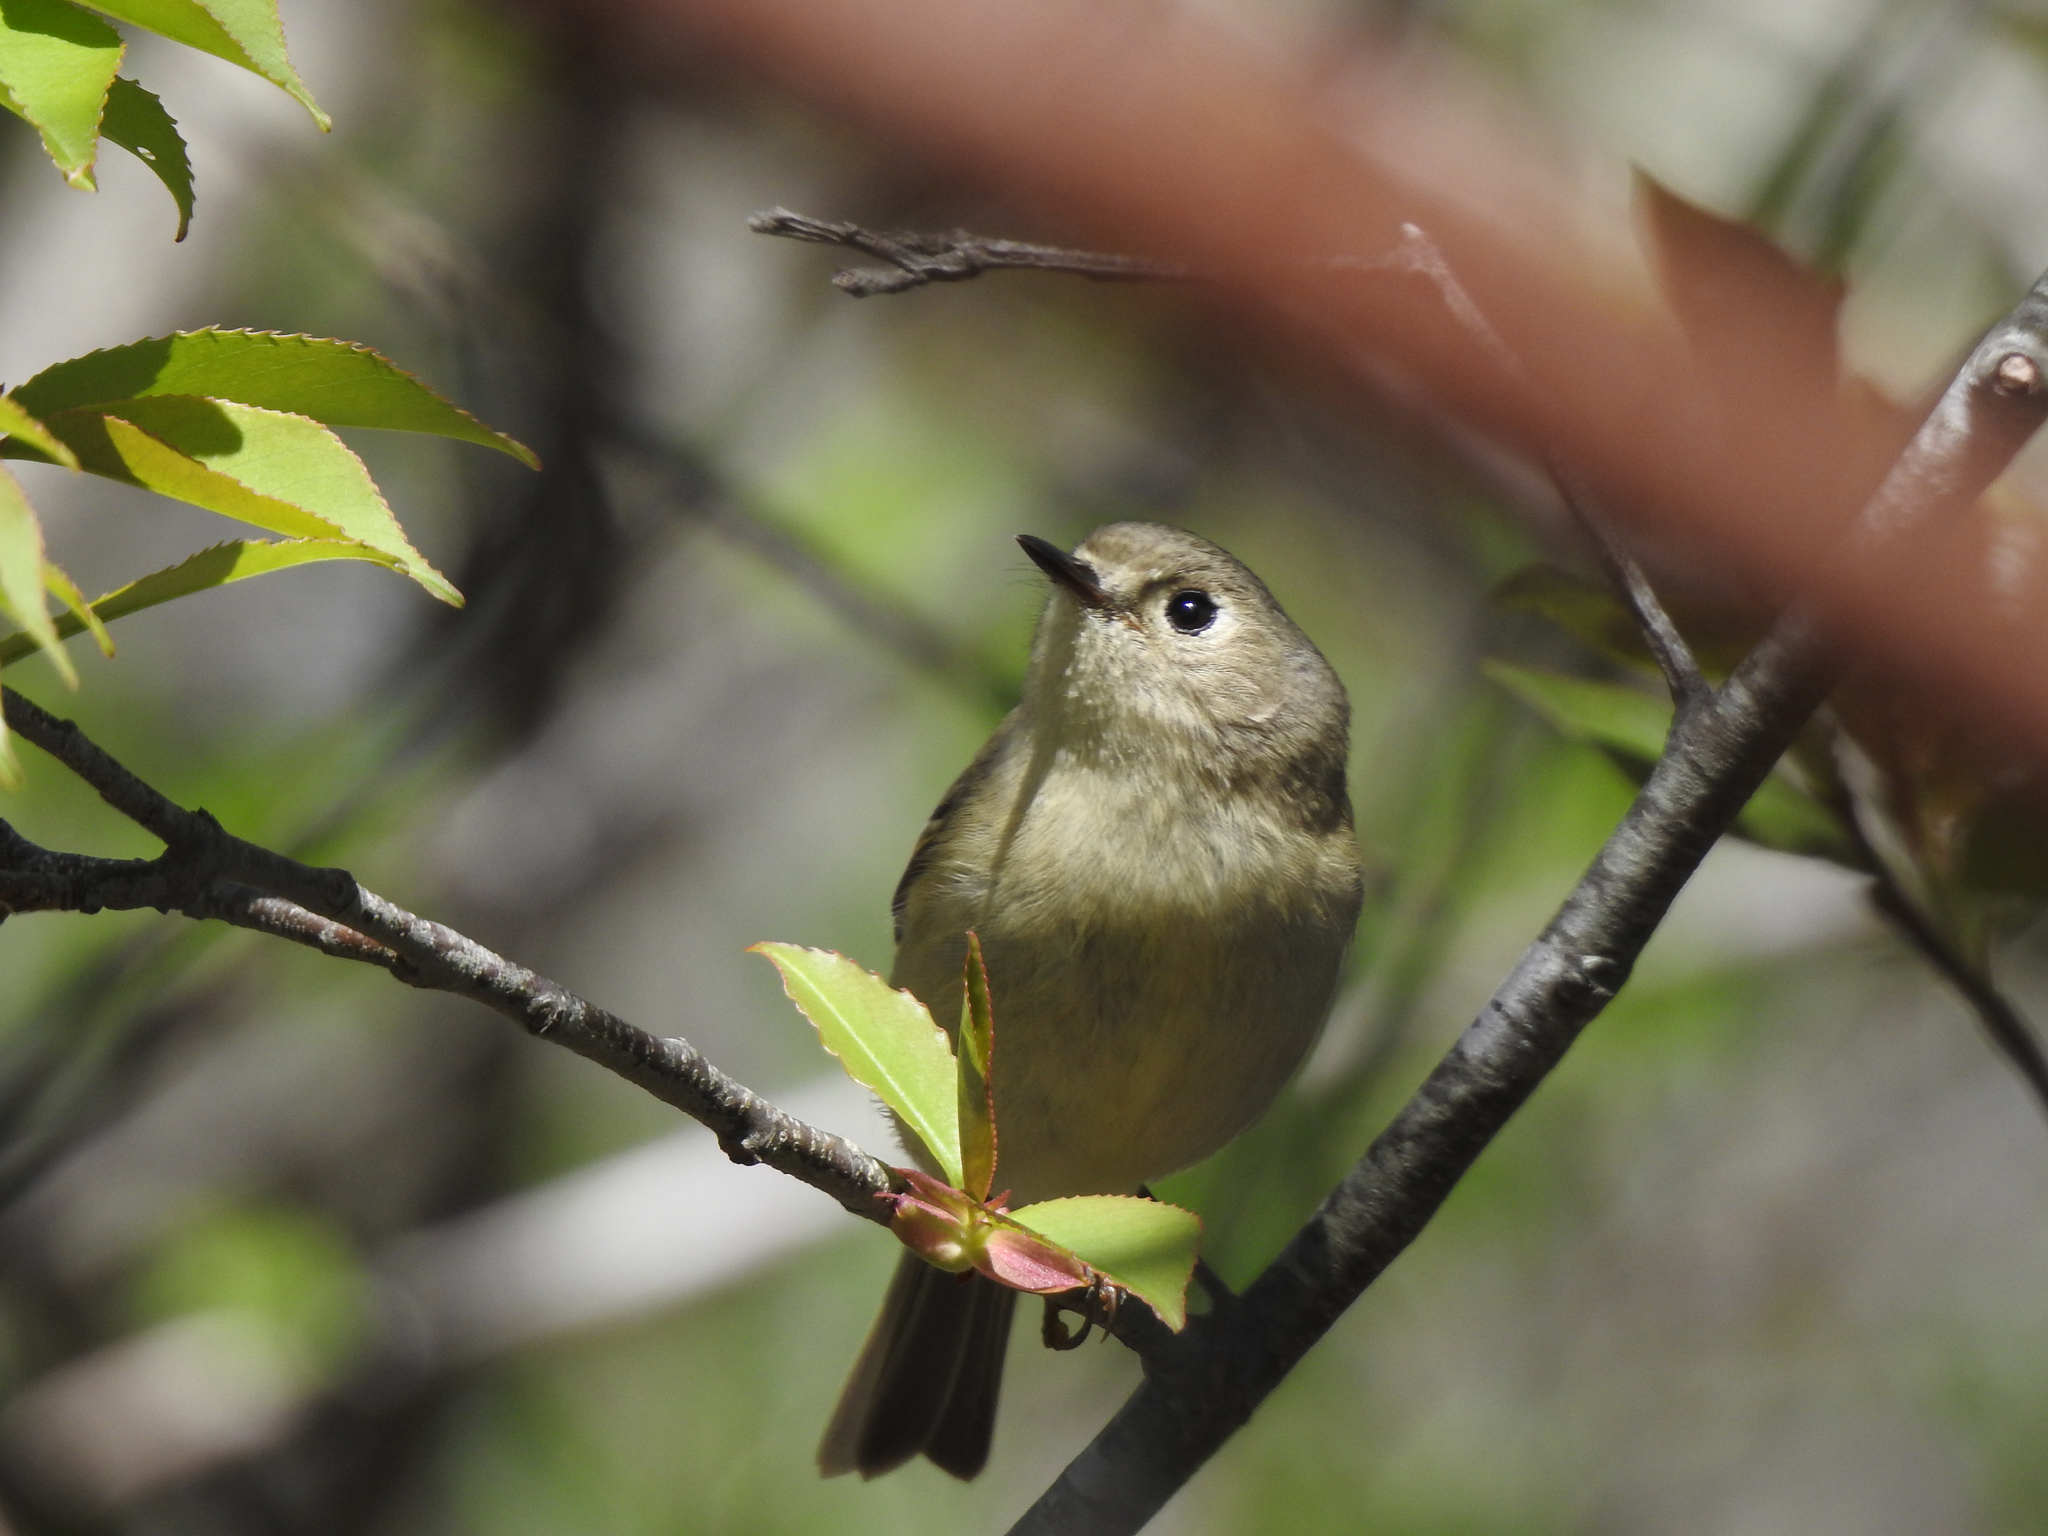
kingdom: Animalia
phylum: Chordata
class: Aves
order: Passeriformes
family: Regulidae
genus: Regulus
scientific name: Regulus calendula
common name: Ruby-crowned kinglet
